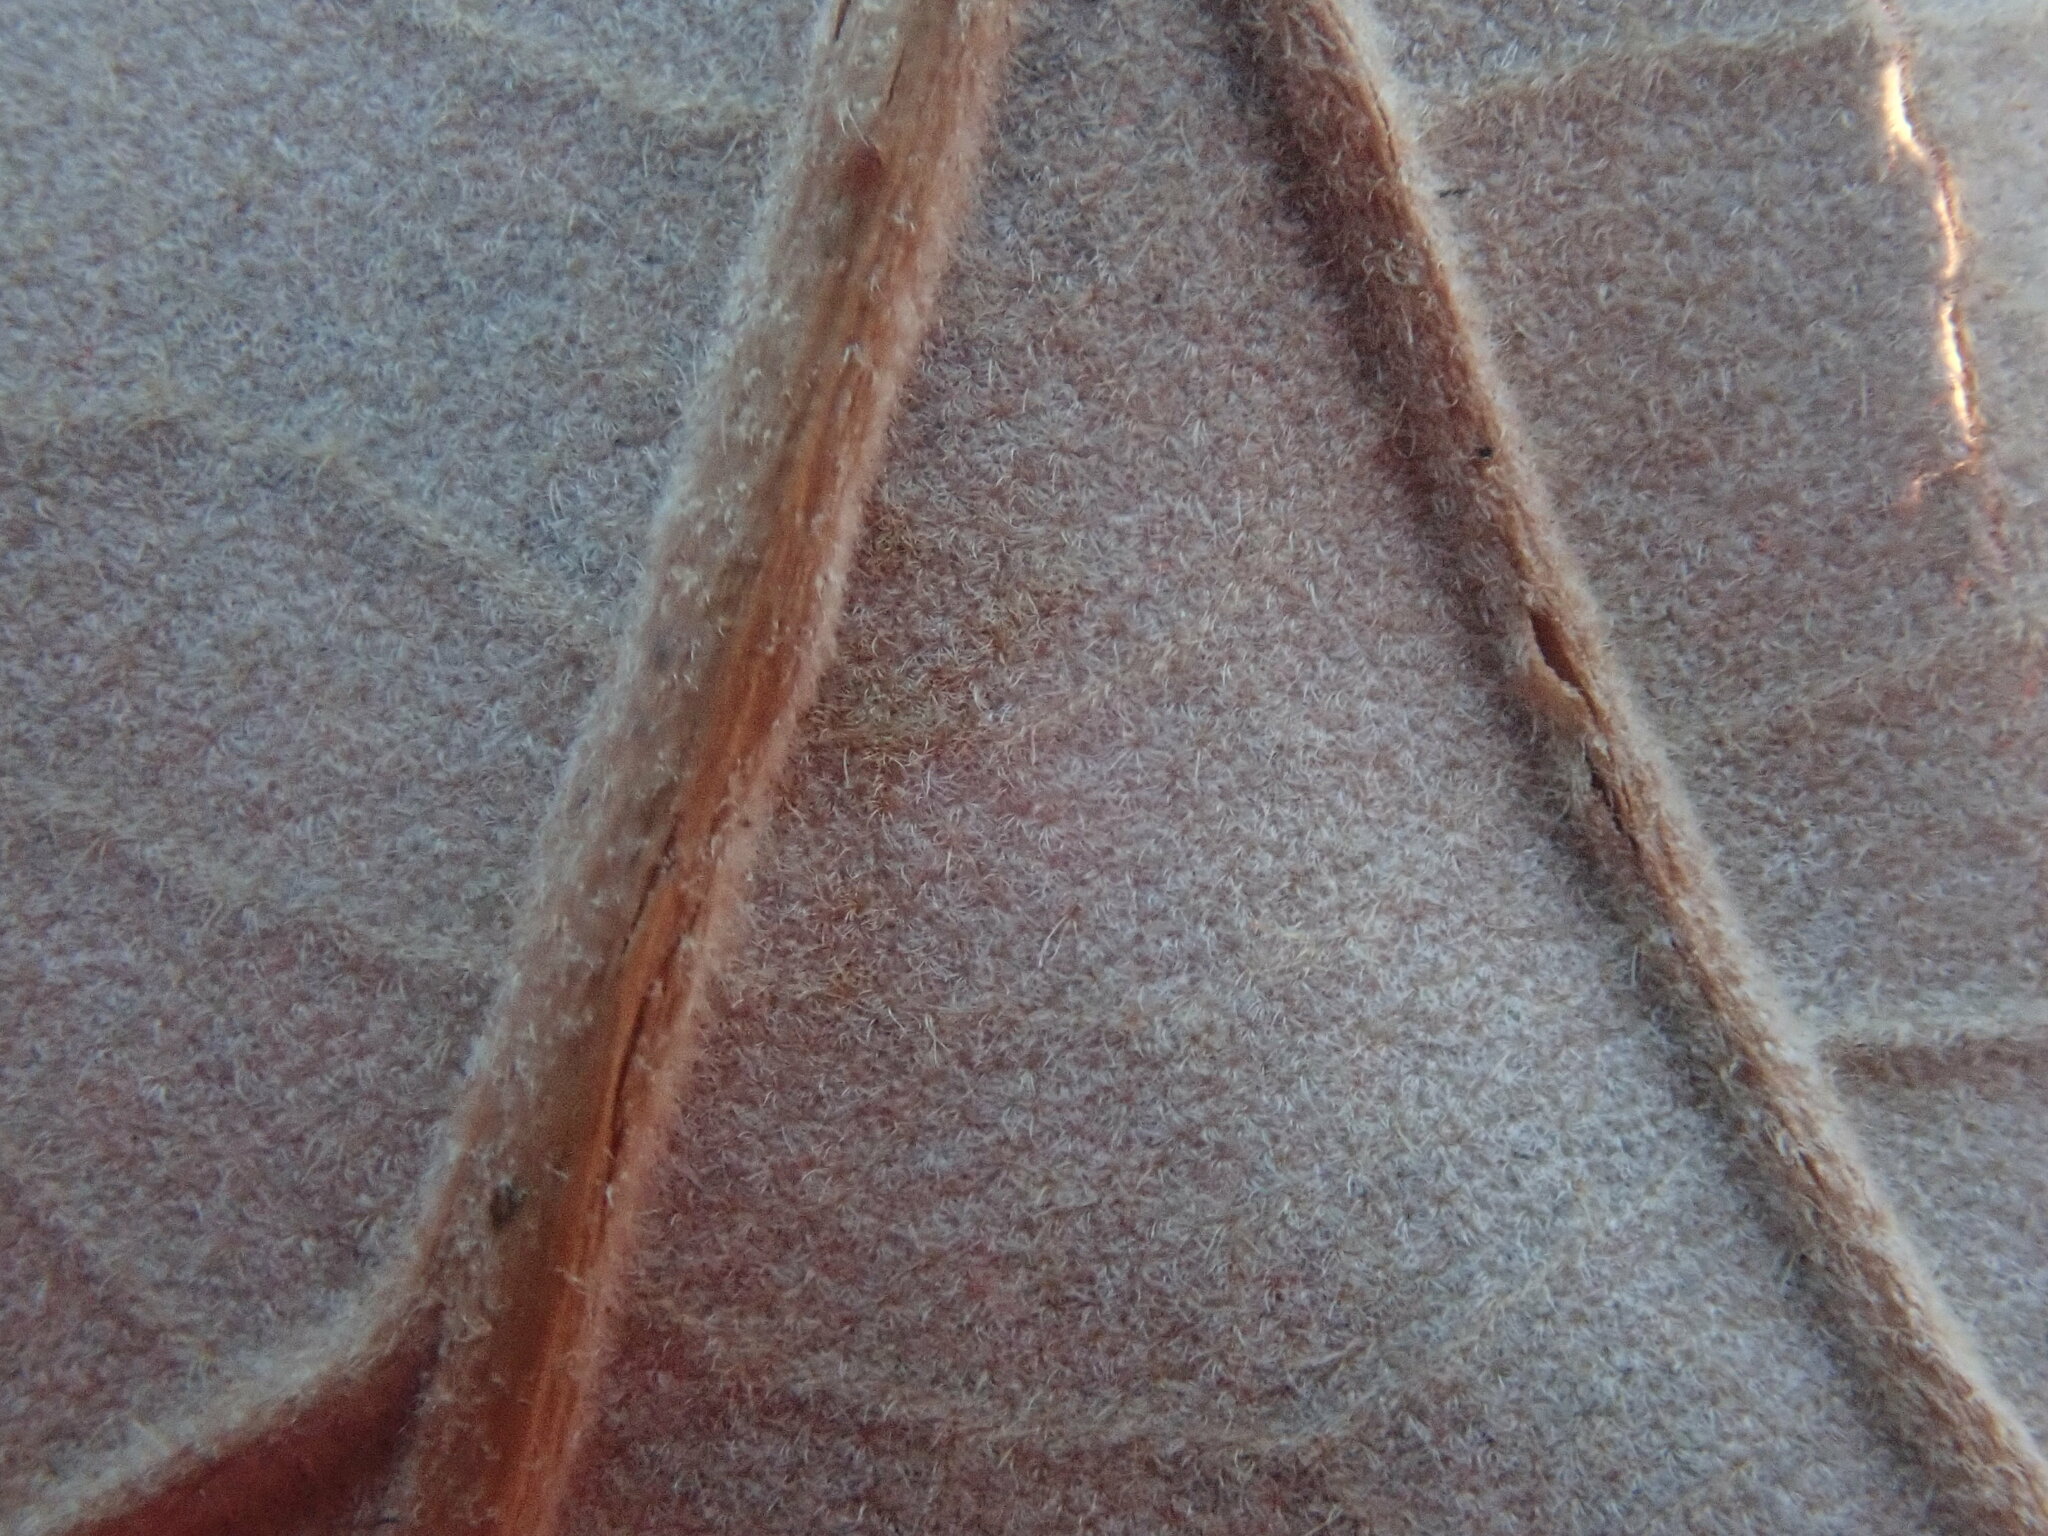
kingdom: Plantae
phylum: Tracheophyta
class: Magnoliopsida
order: Fagales
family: Fagaceae
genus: Quercus
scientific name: Quercus bicolor
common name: Swamp white oak
